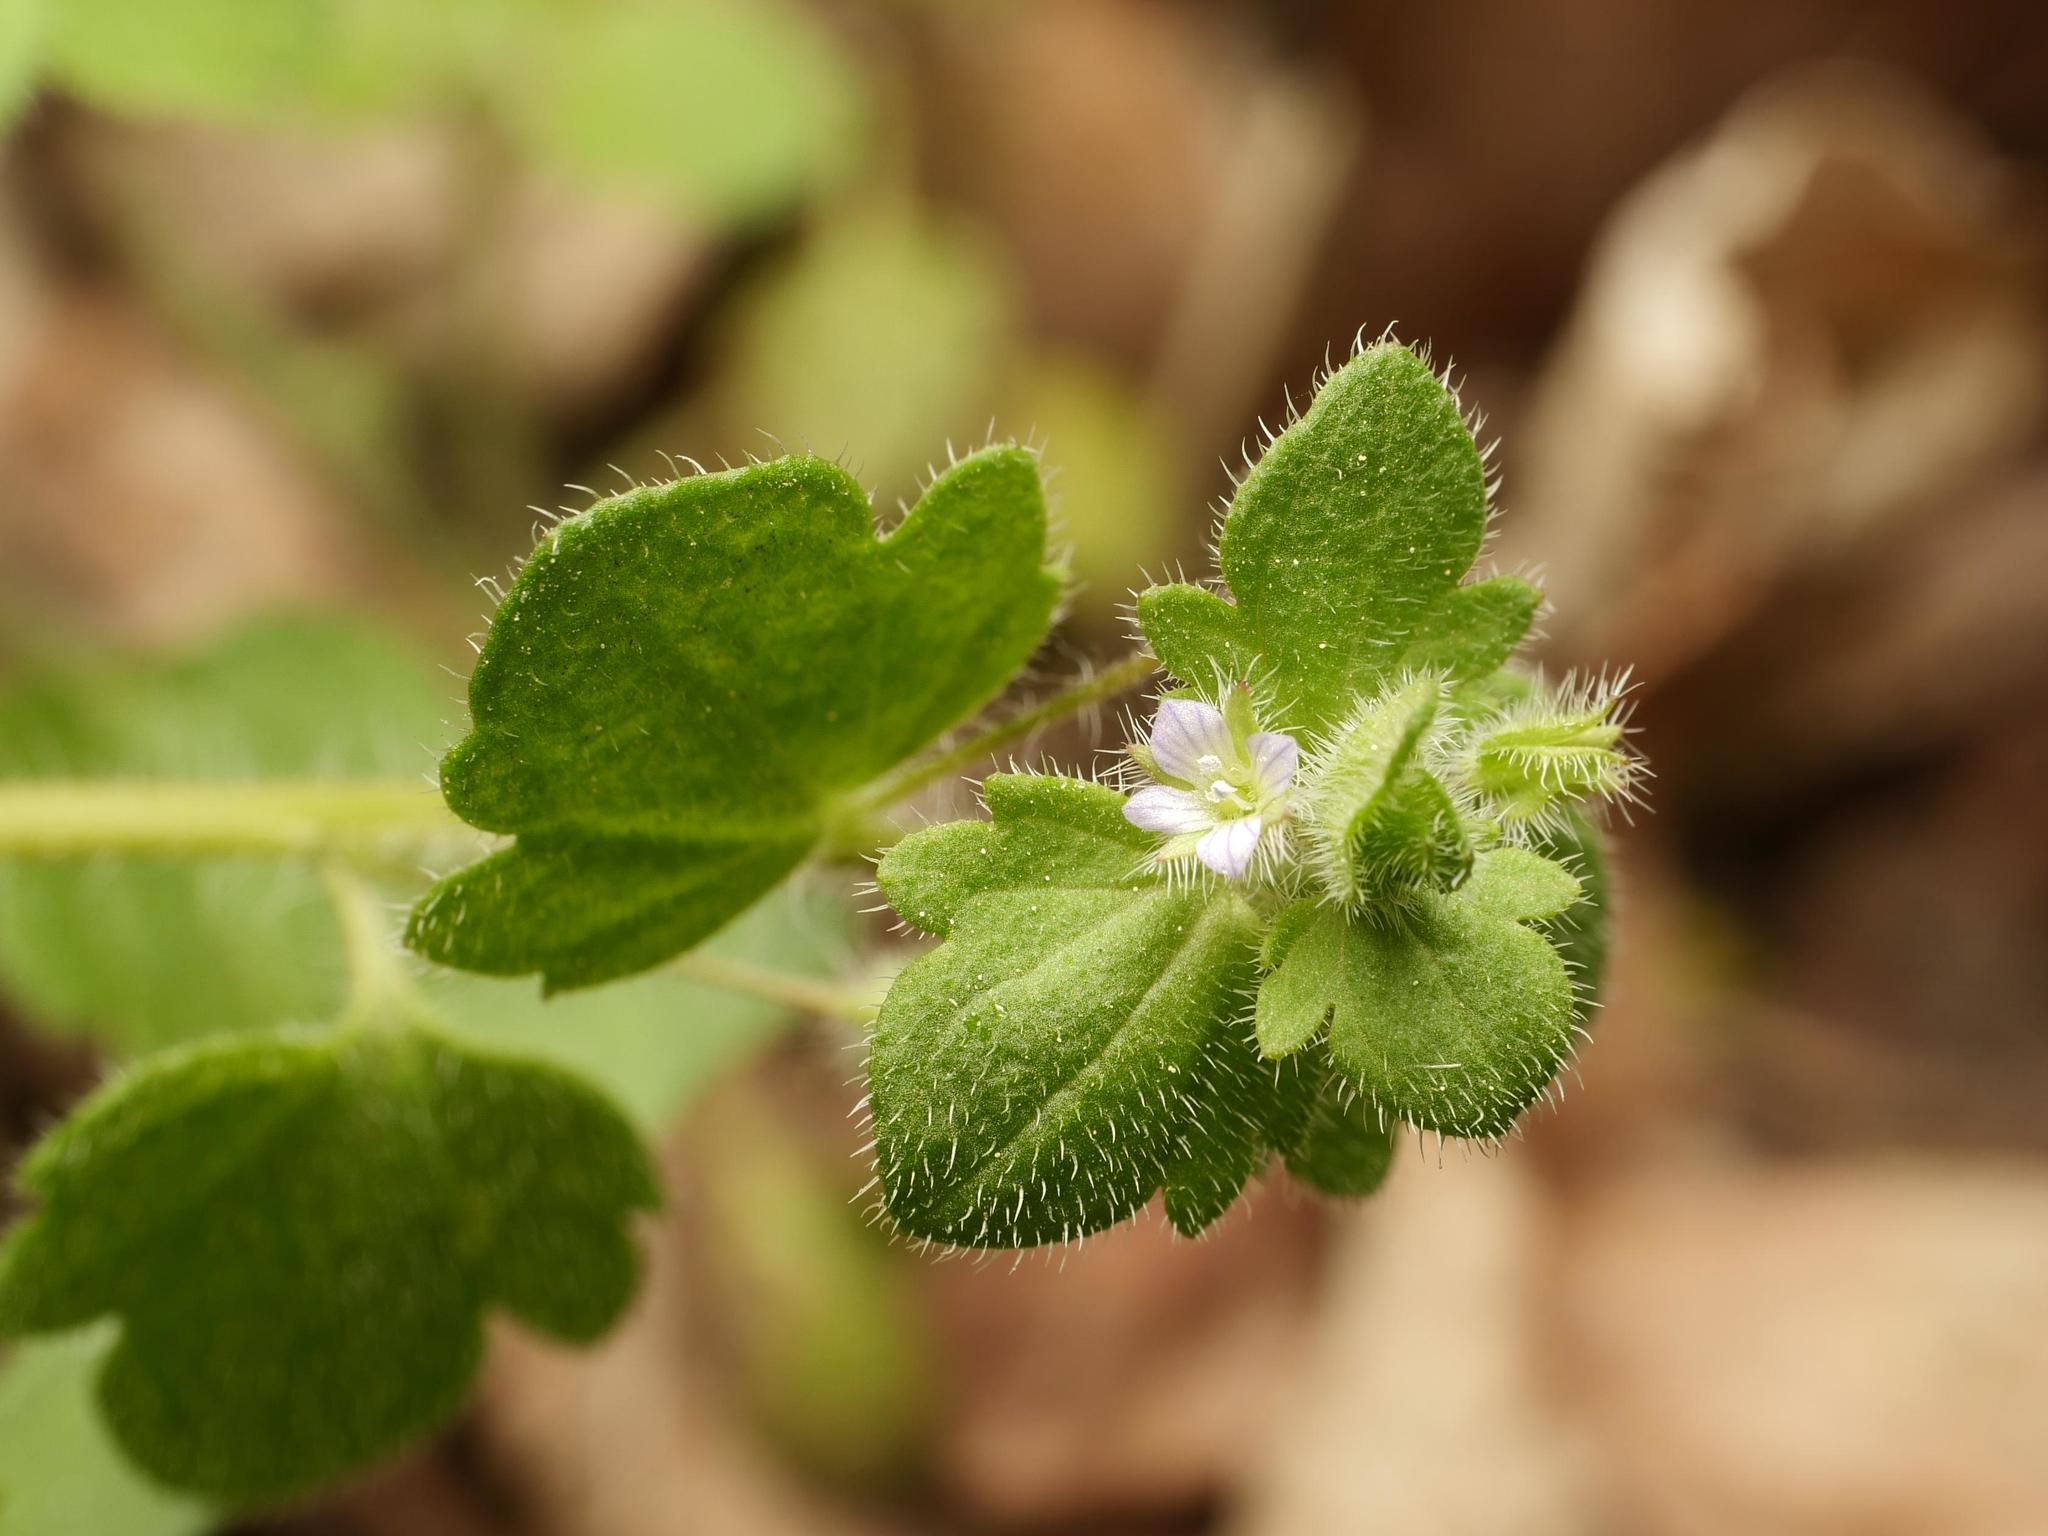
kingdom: Plantae
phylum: Tracheophyta
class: Magnoliopsida
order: Lamiales
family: Plantaginaceae
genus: Veronica
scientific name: Veronica sublobata
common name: False ivy-leaved speedwell
